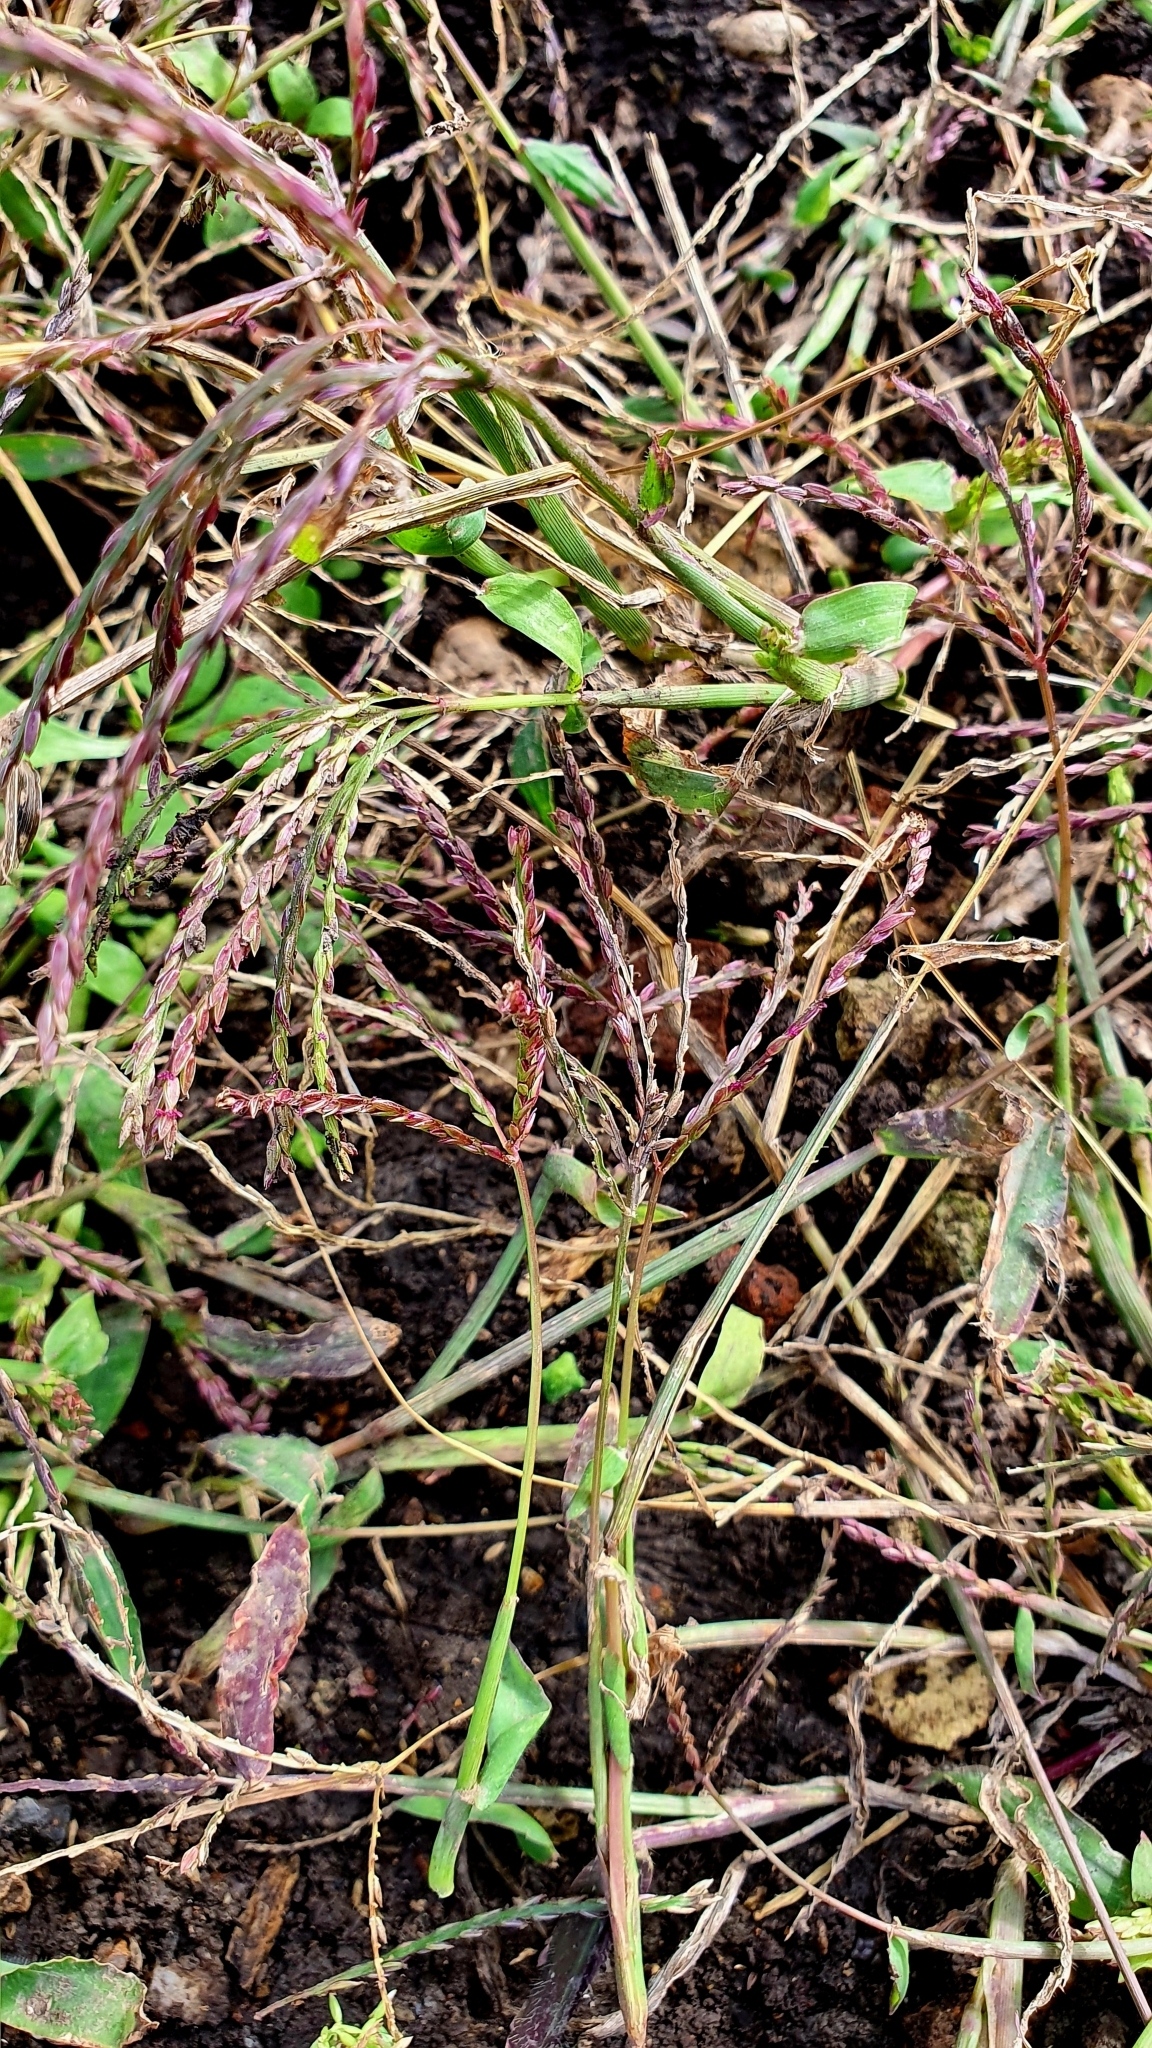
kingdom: Plantae
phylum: Tracheophyta
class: Liliopsida
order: Poales
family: Poaceae
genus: Digitaria
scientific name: Digitaria sanguinalis
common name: Hairy crabgrass
